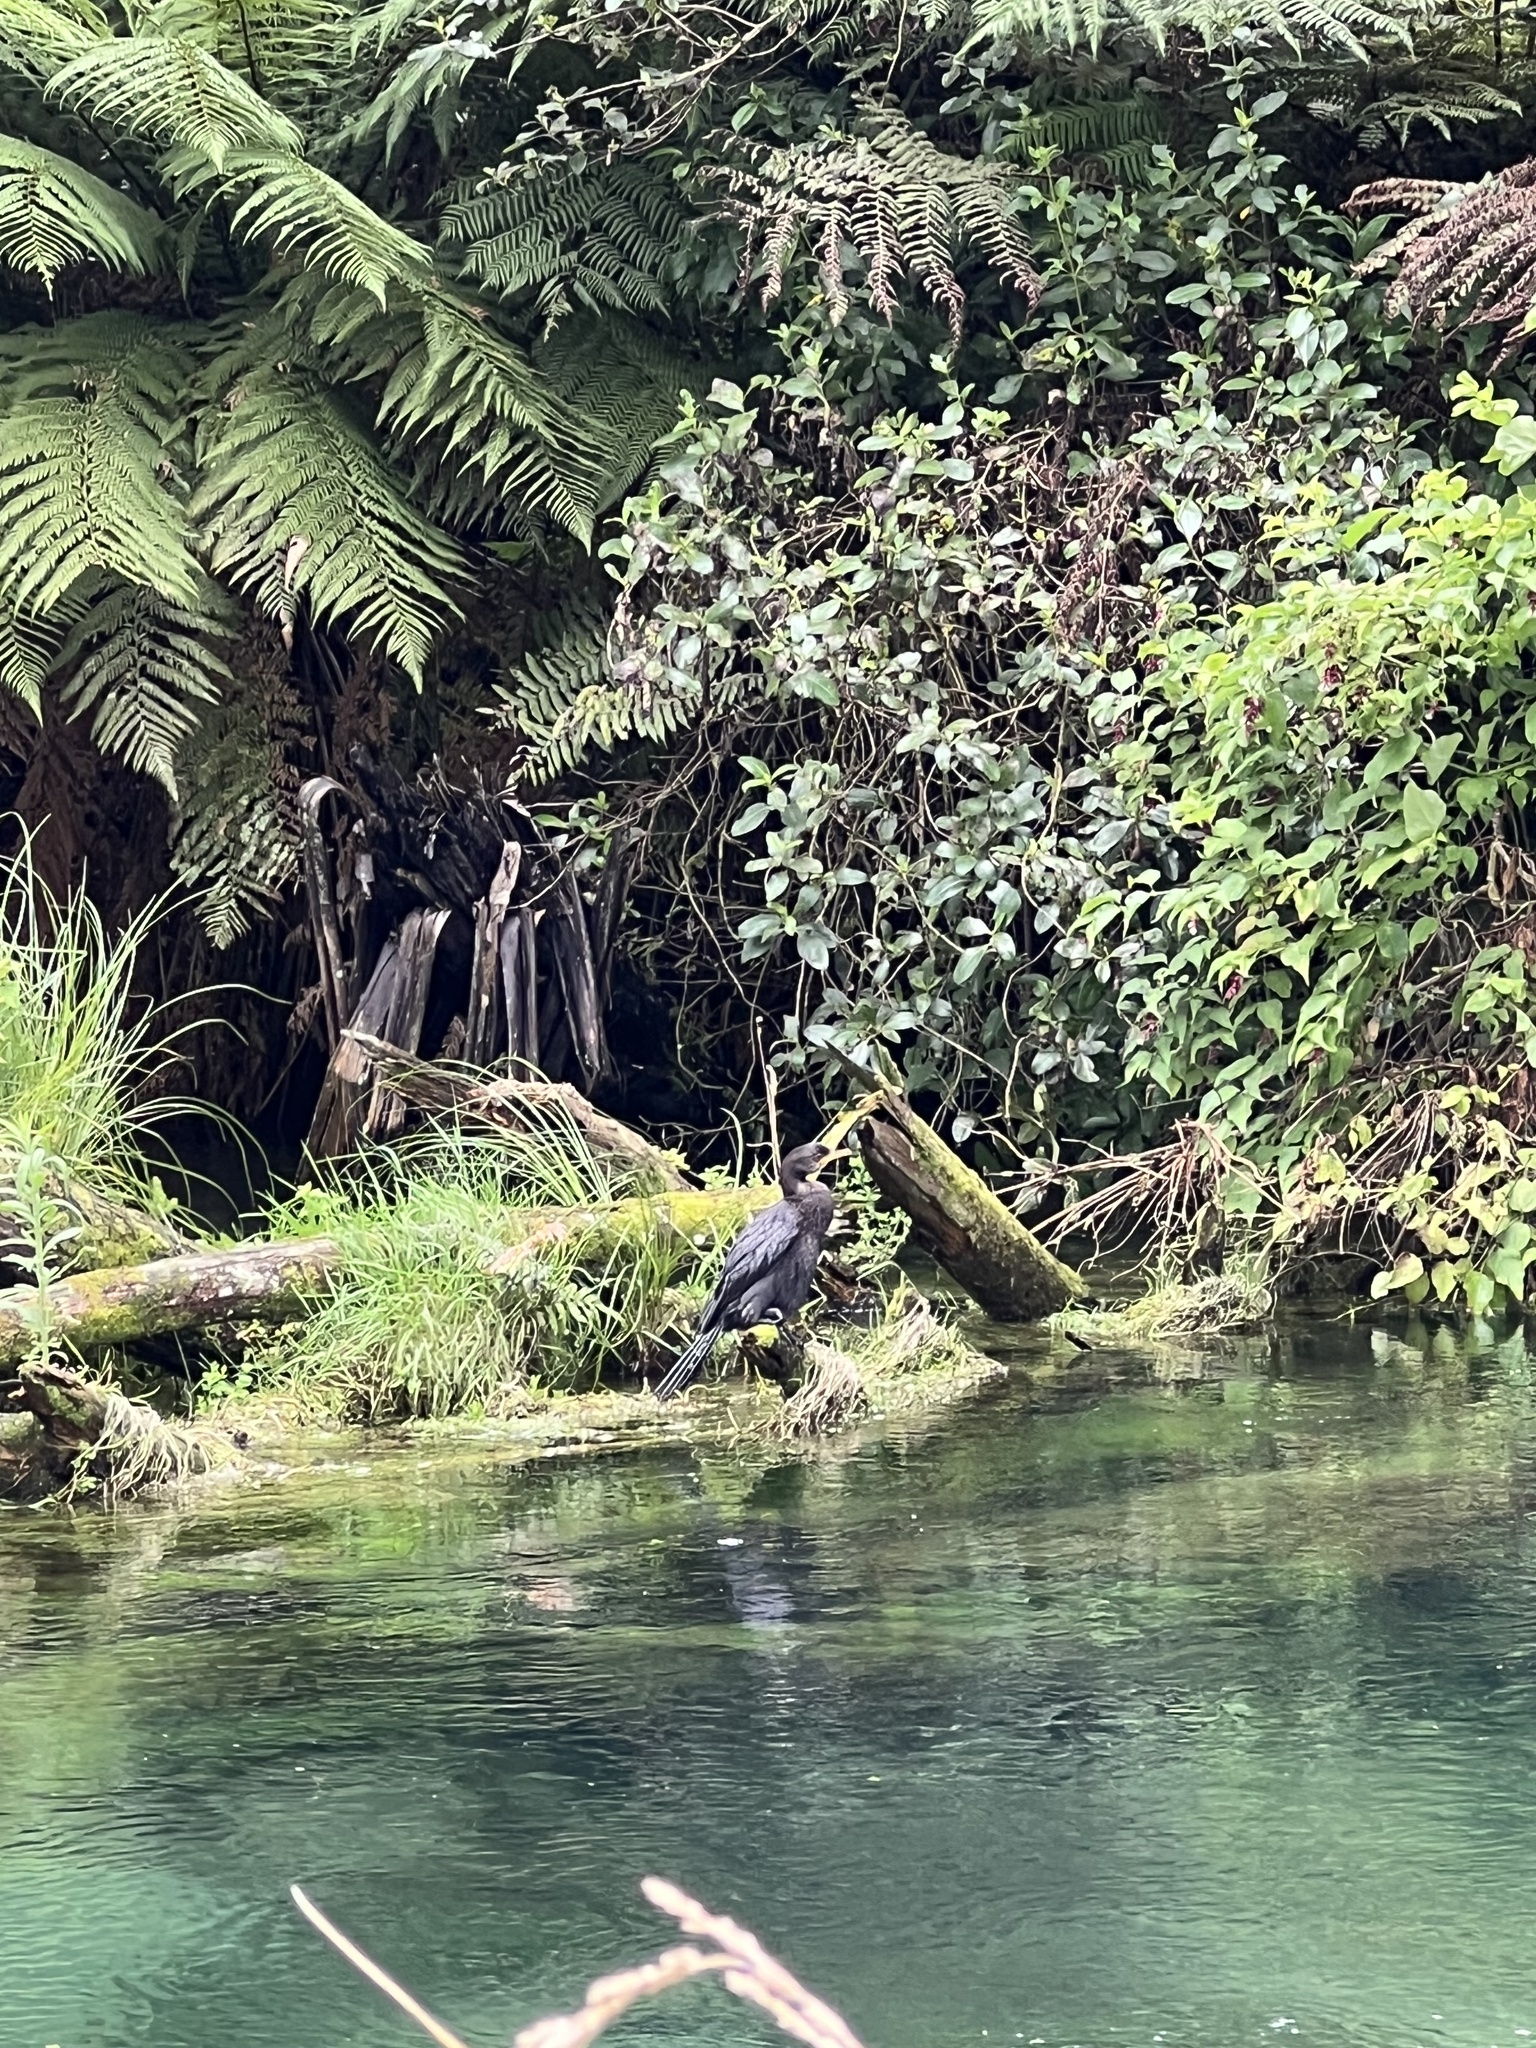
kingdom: Animalia
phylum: Chordata
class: Aves
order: Suliformes
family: Phalacrocoracidae
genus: Phalacrocorax
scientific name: Phalacrocorax carbo
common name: Great cormorant
